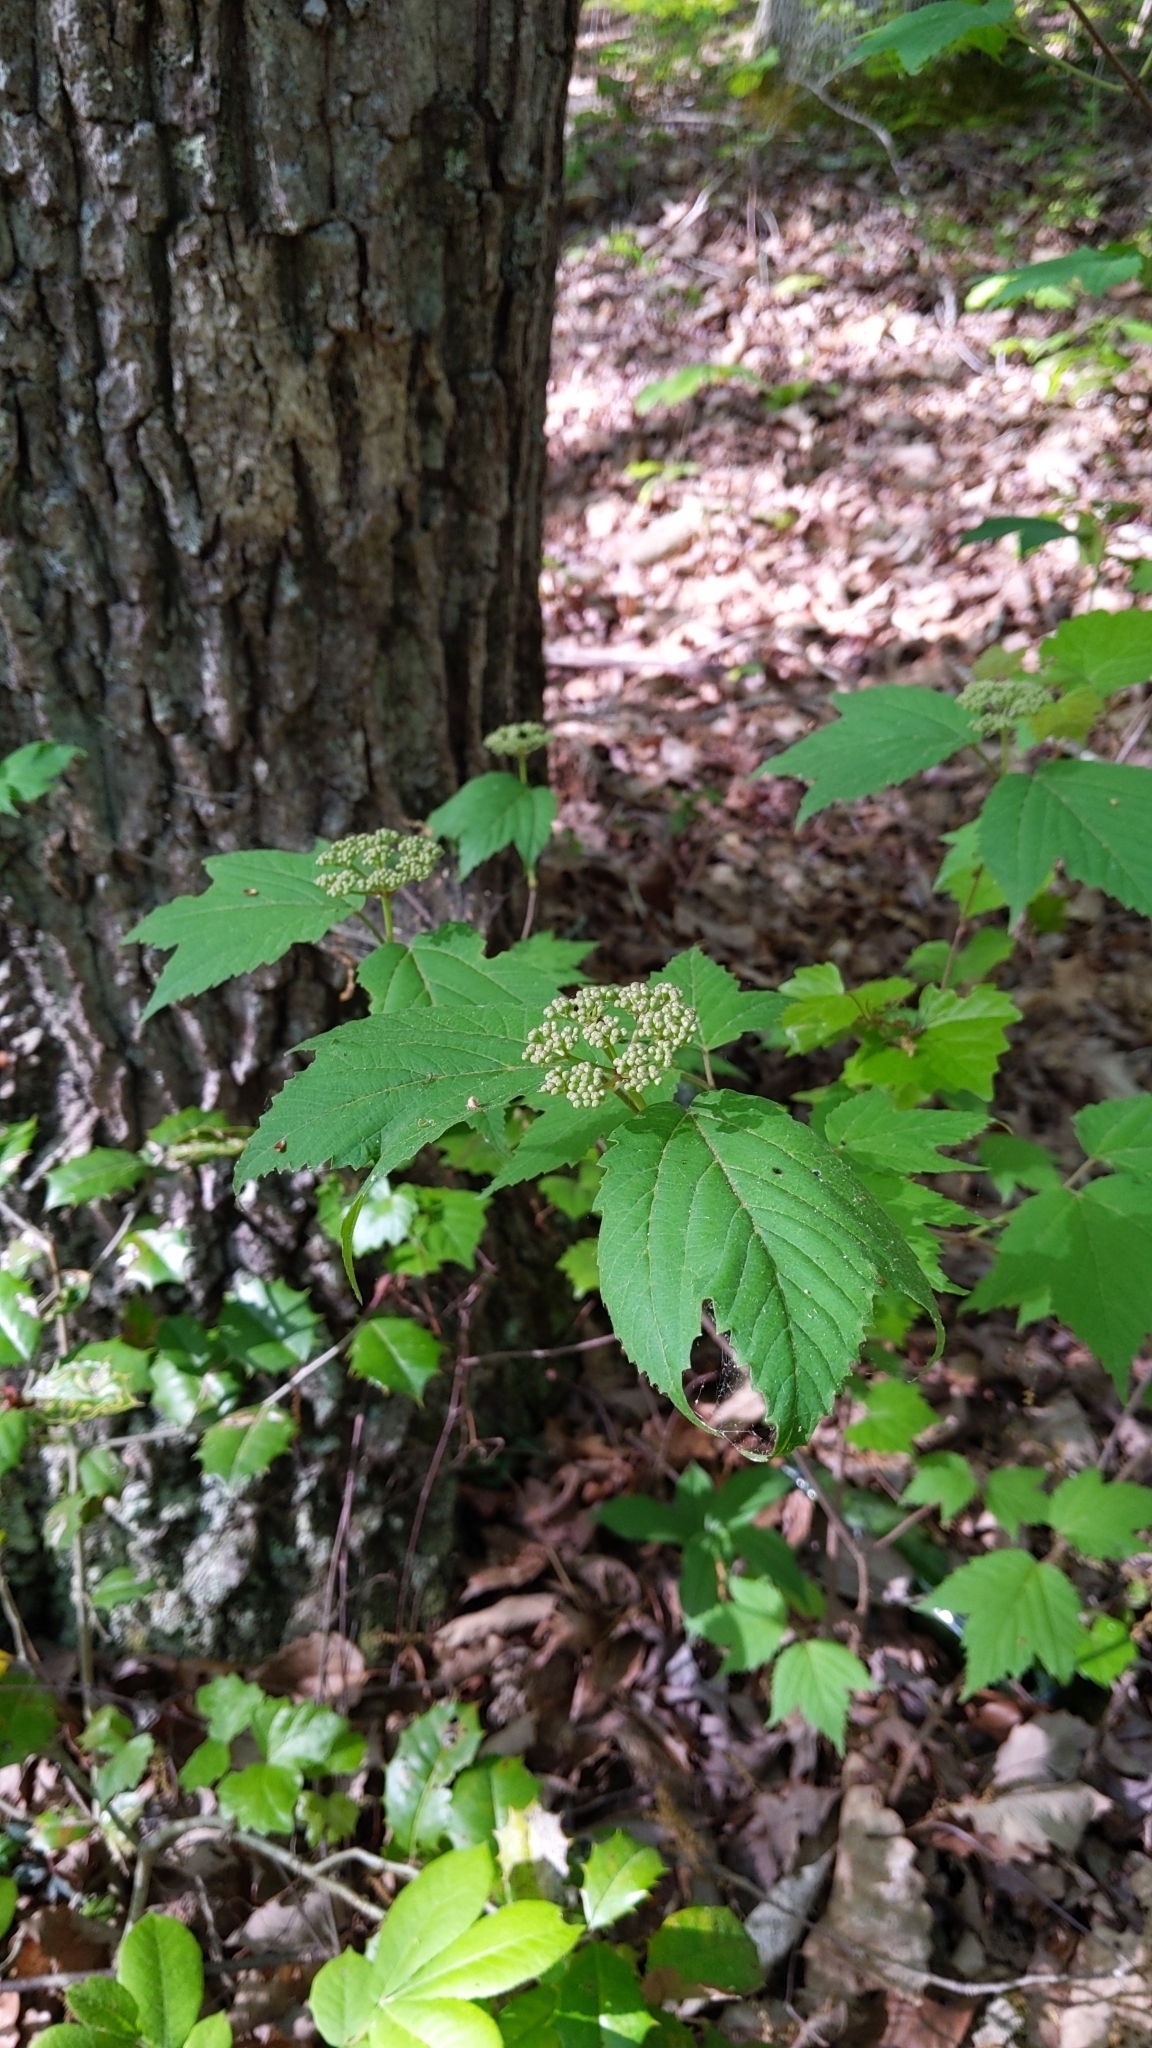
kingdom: Plantae
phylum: Tracheophyta
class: Magnoliopsida
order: Dipsacales
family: Viburnaceae
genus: Viburnum
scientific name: Viburnum acerifolium
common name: Dockmackie
